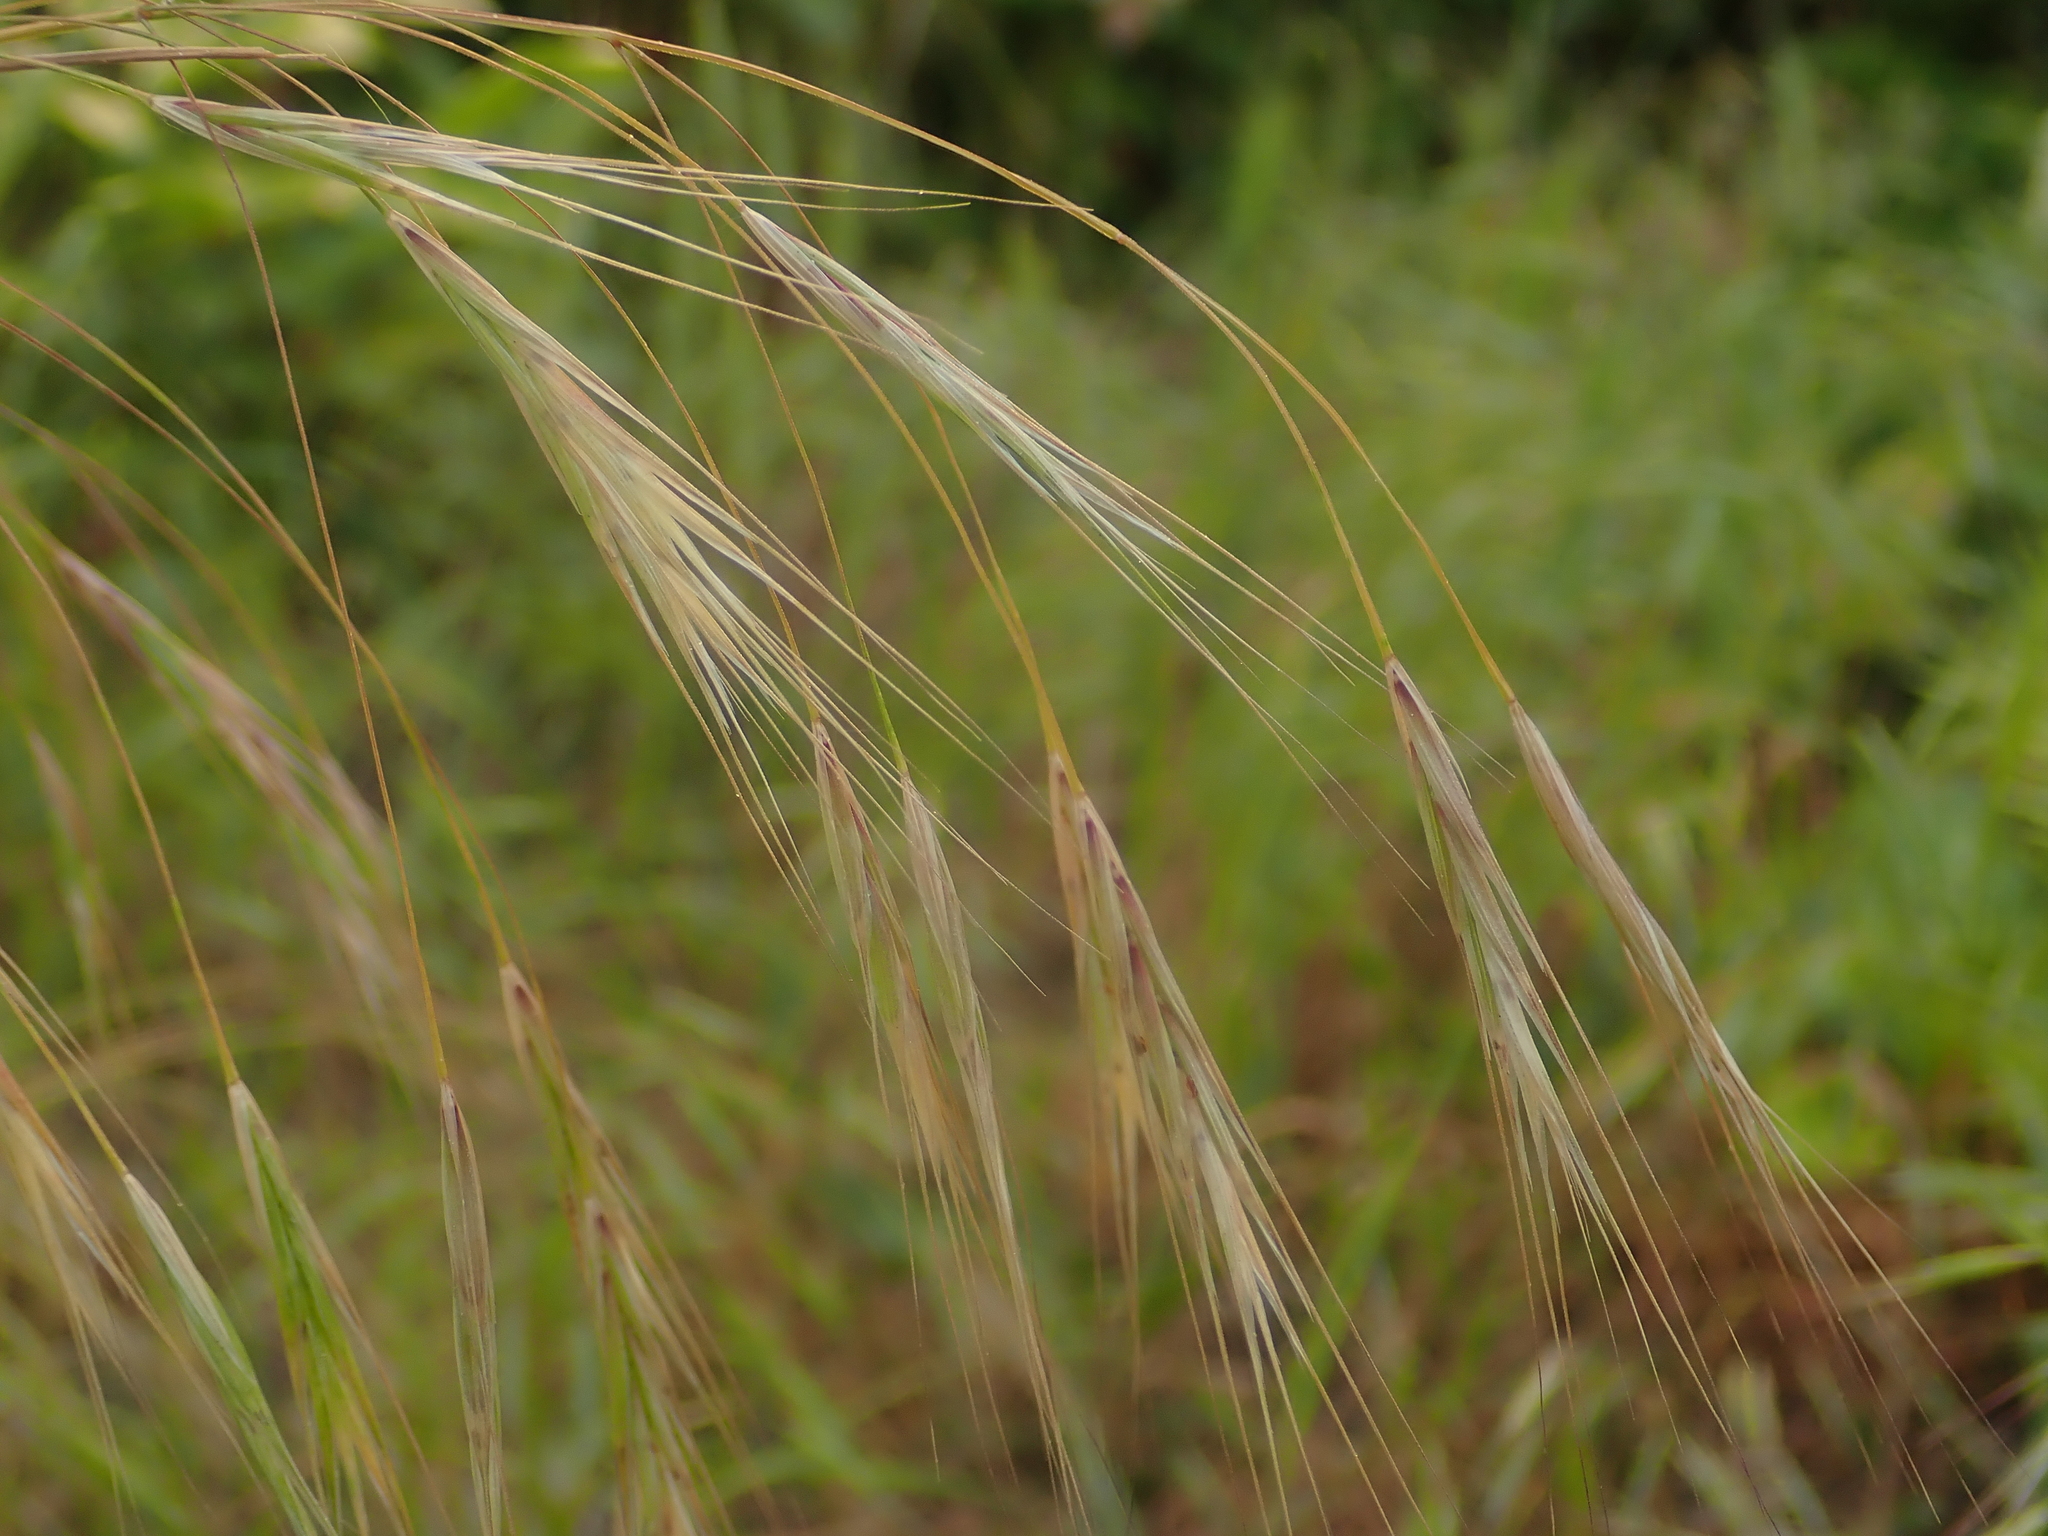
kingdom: Plantae
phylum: Tracheophyta
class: Liliopsida
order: Poales
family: Poaceae
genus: Bromus
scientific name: Bromus sterilis
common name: Poverty brome
